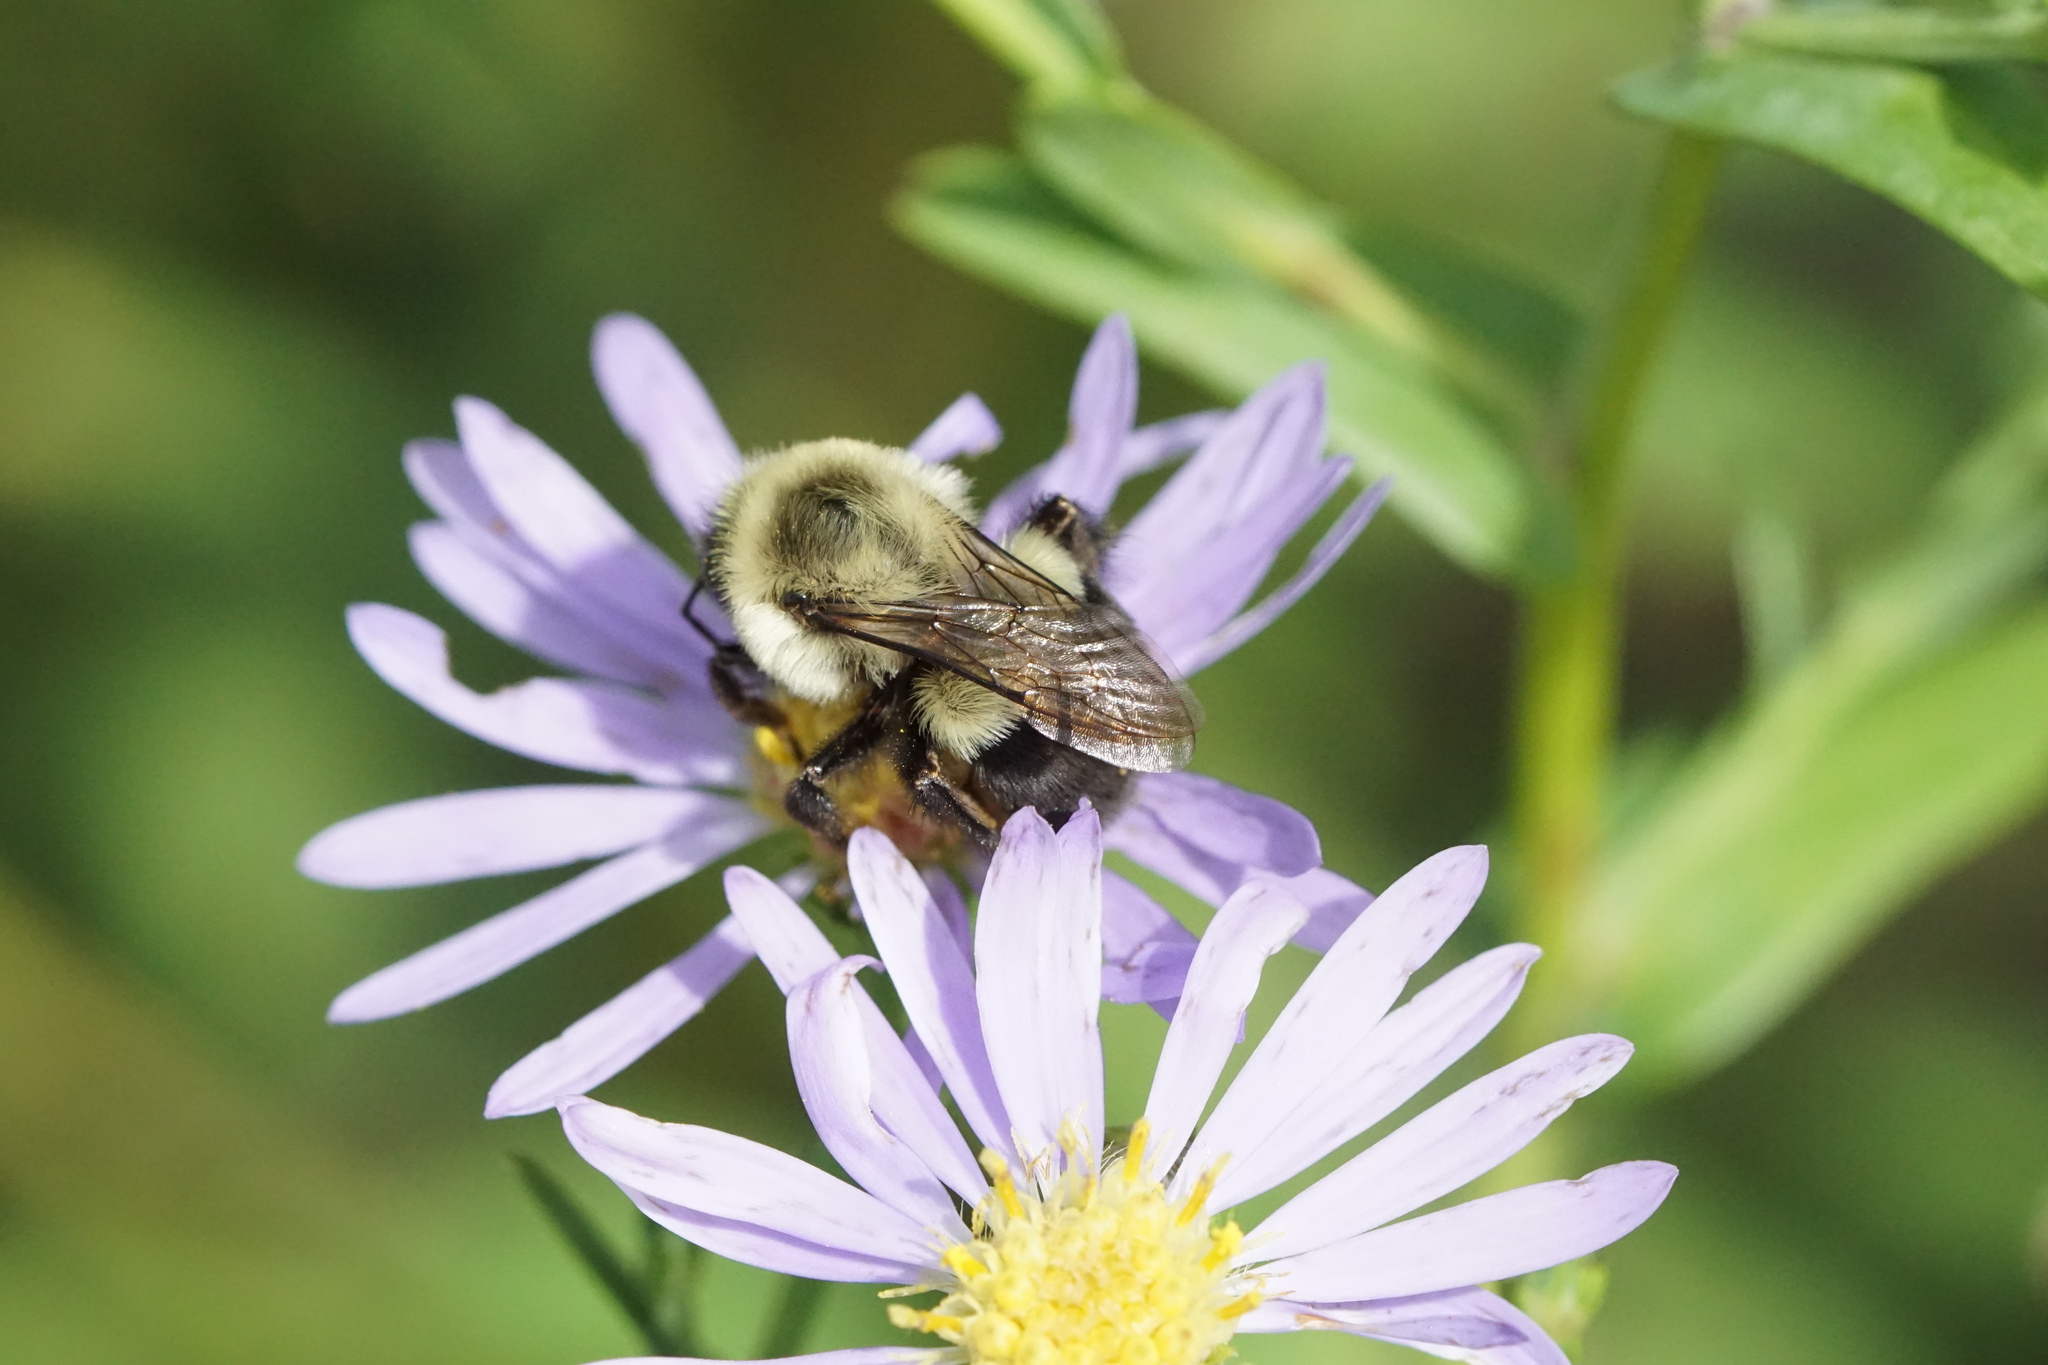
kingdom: Animalia
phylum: Arthropoda
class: Insecta
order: Hymenoptera
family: Apidae
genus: Bombus
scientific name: Bombus impatiens
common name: Common eastern bumble bee
